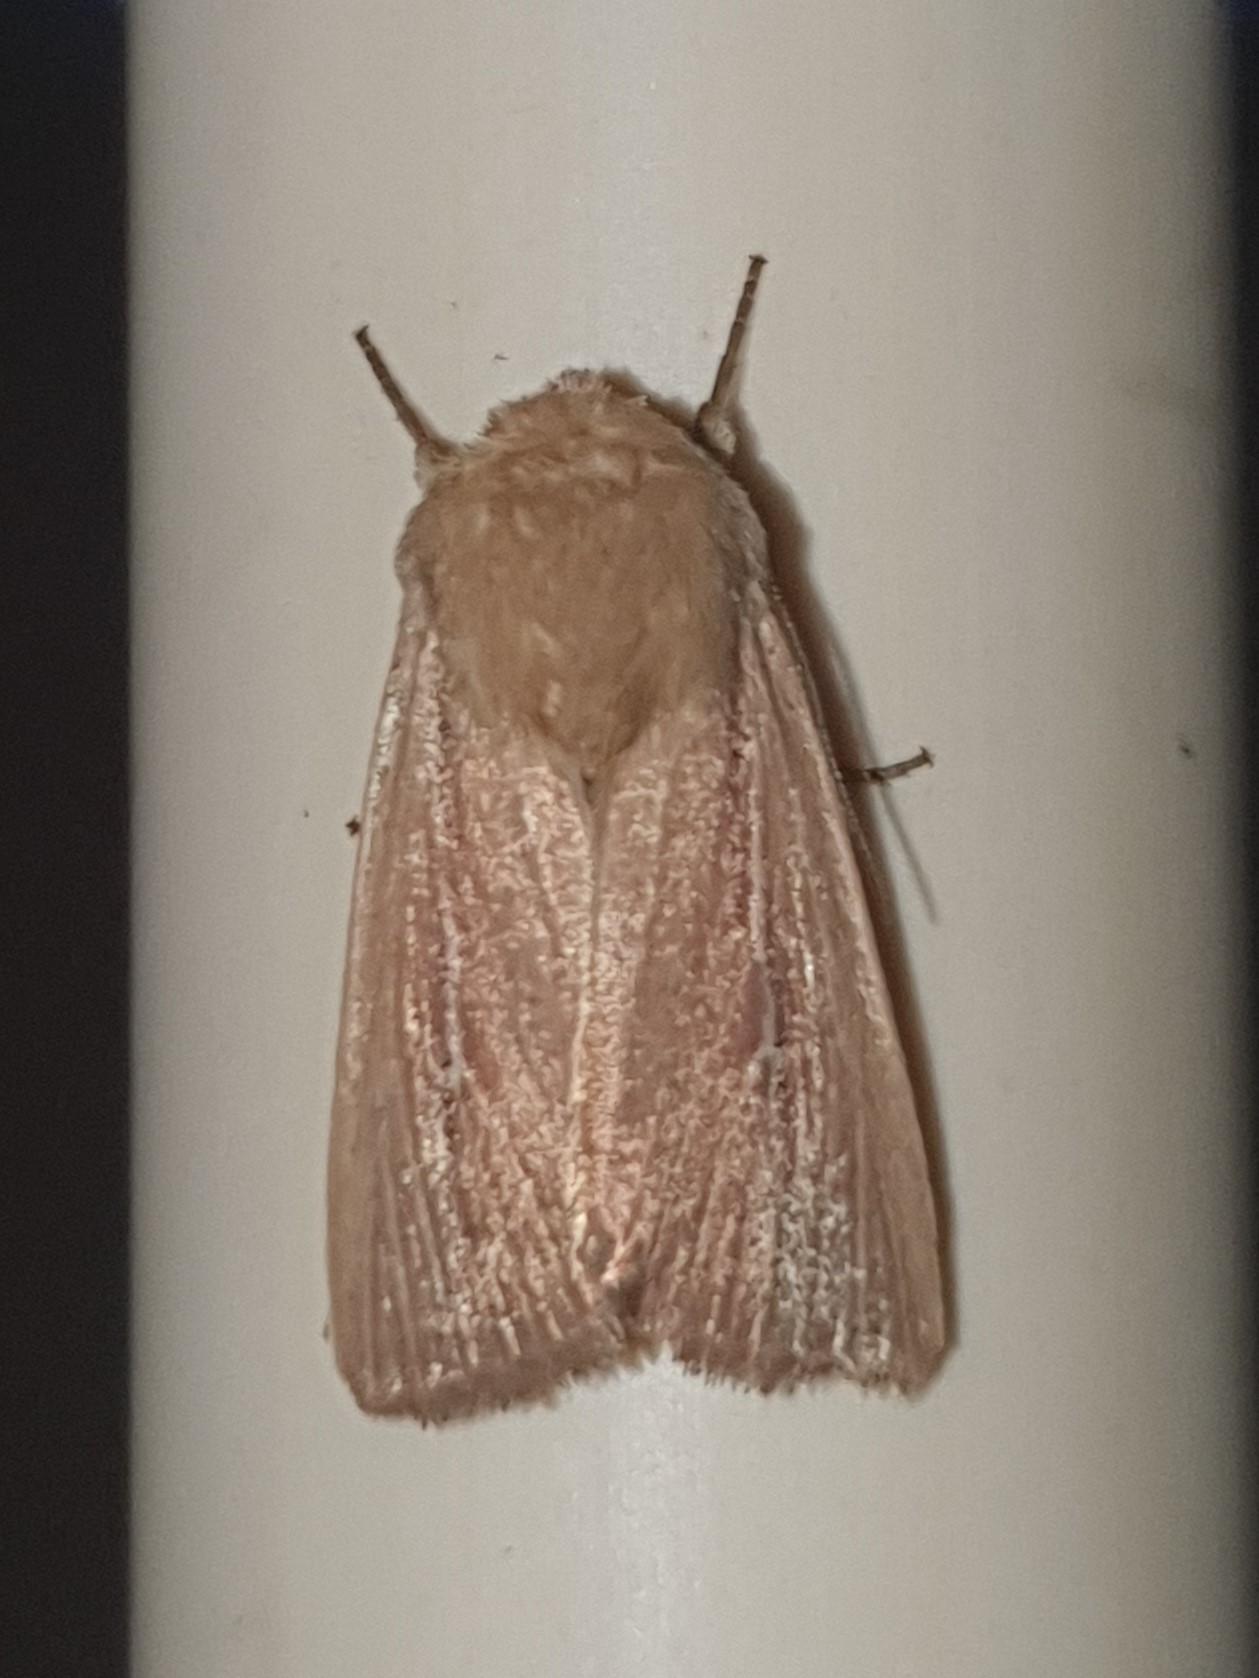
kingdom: Animalia
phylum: Arthropoda
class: Insecta
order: Lepidoptera
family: Noctuidae
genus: Mythimna
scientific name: Mythimna sicula
